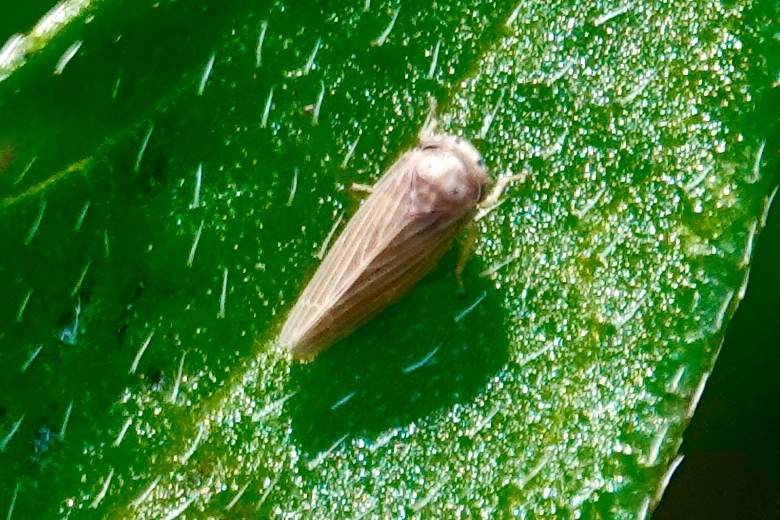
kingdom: Animalia
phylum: Arthropoda
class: Insecta
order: Hemiptera
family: Cicadellidae
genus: Agalliota
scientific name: Agalliota quadripunctata
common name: The four-spotted clover leafhopper
